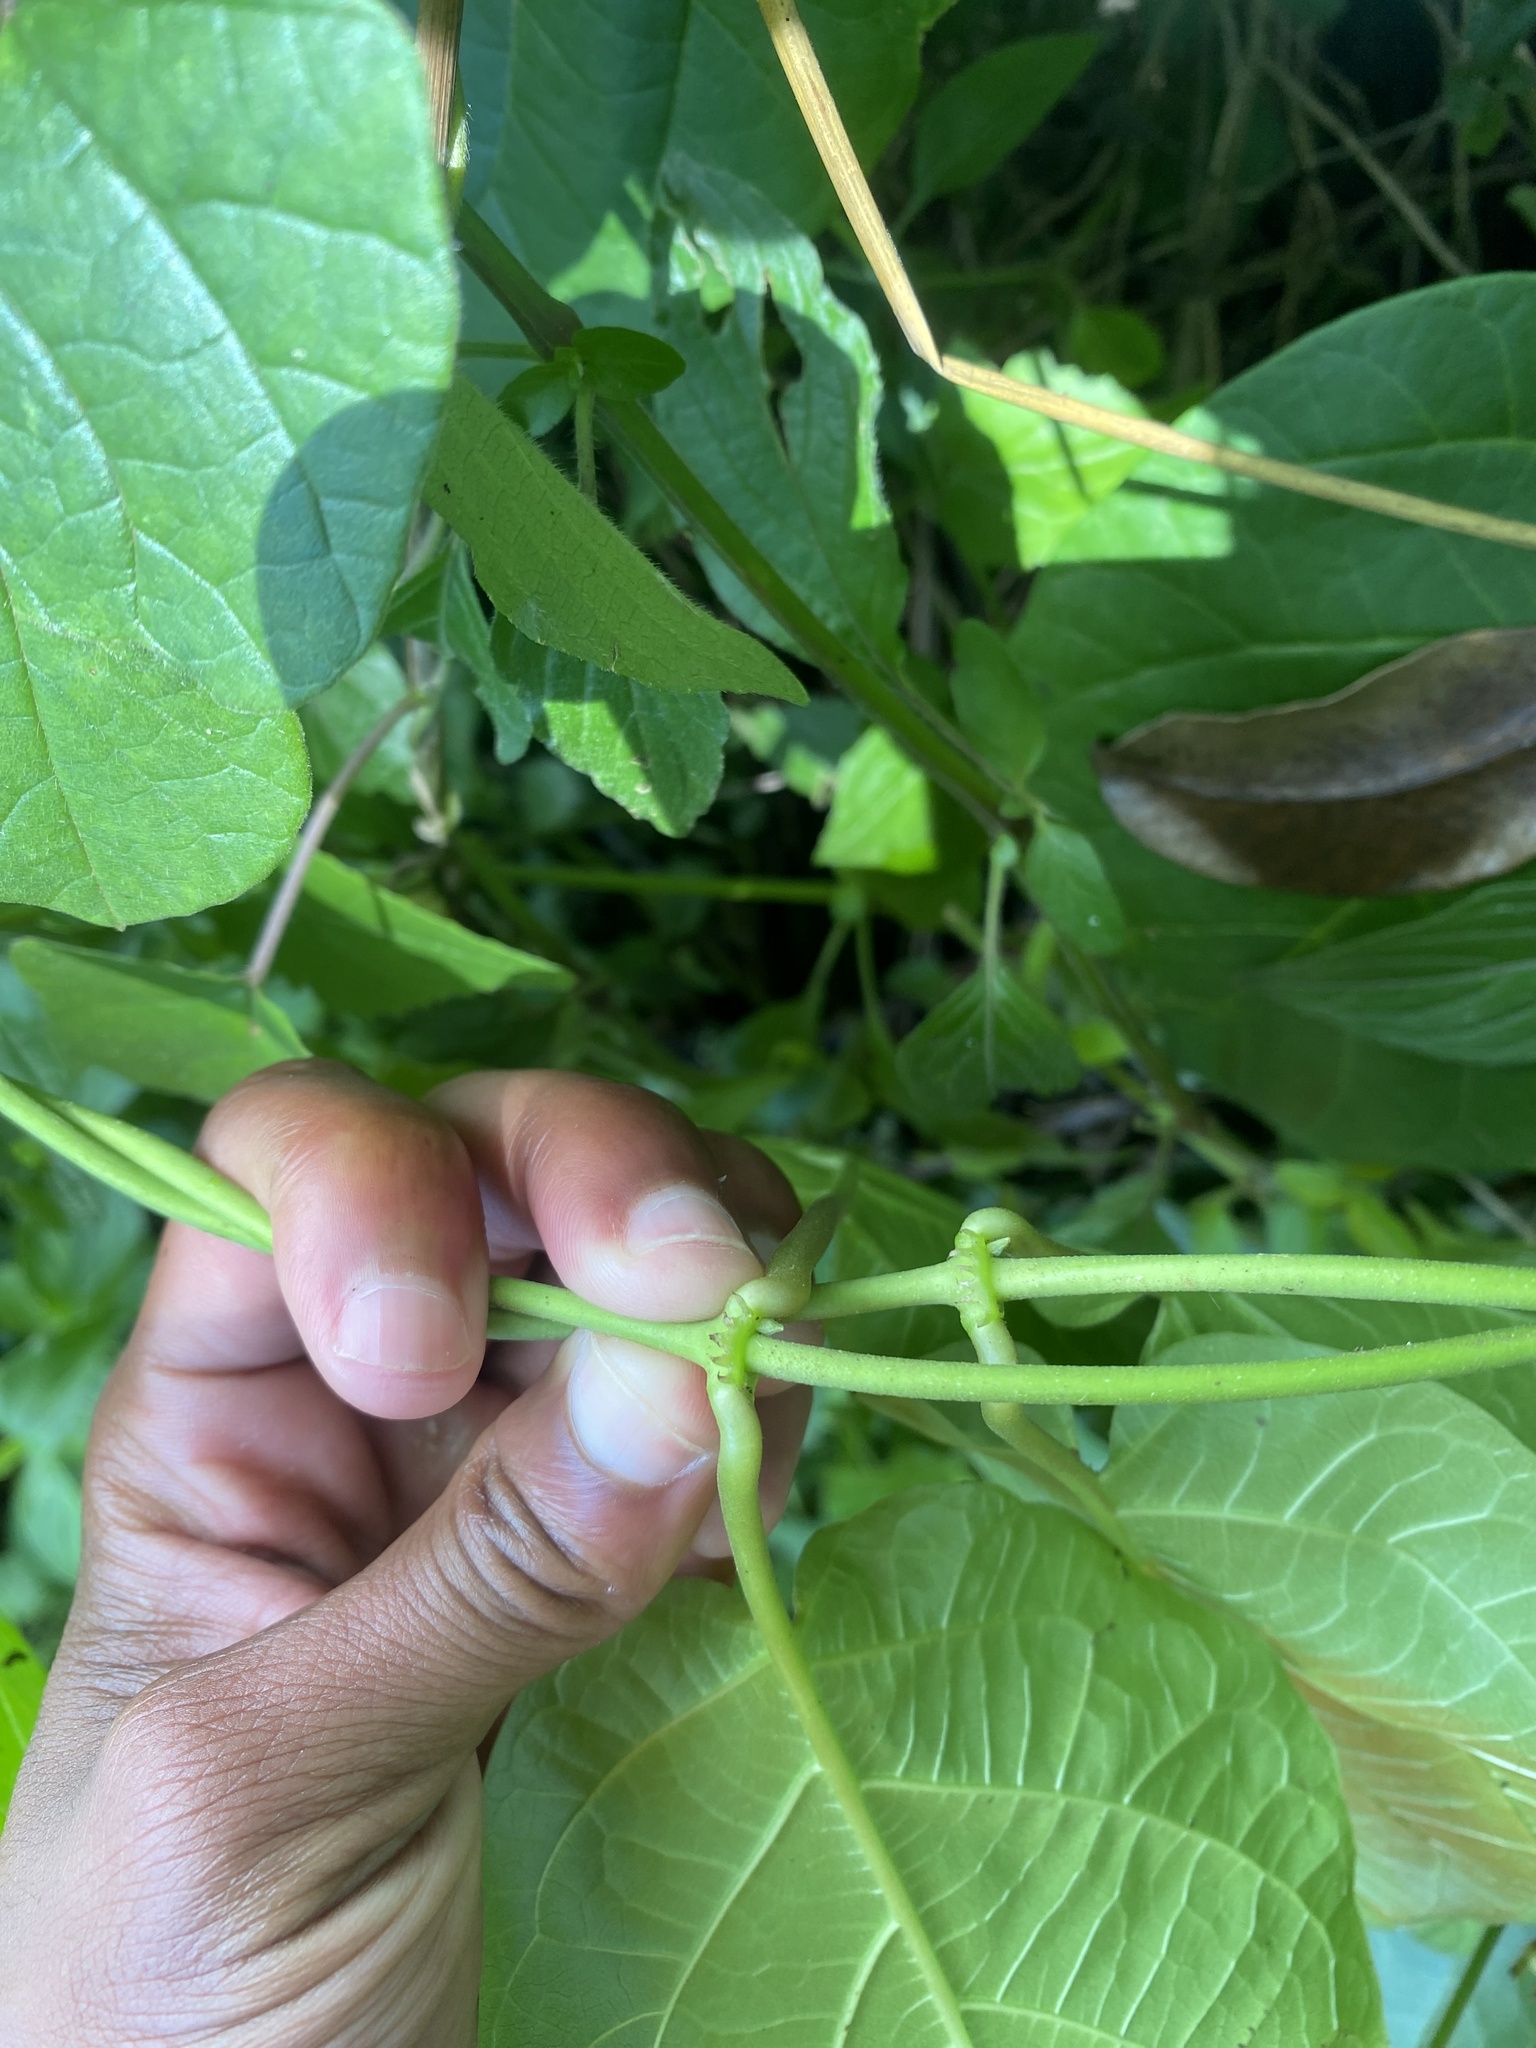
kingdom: Plantae
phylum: Tracheophyta
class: Magnoliopsida
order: Gentianales
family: Apocynaceae
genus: Mondia
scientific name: Mondia whitei
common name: Mondia
